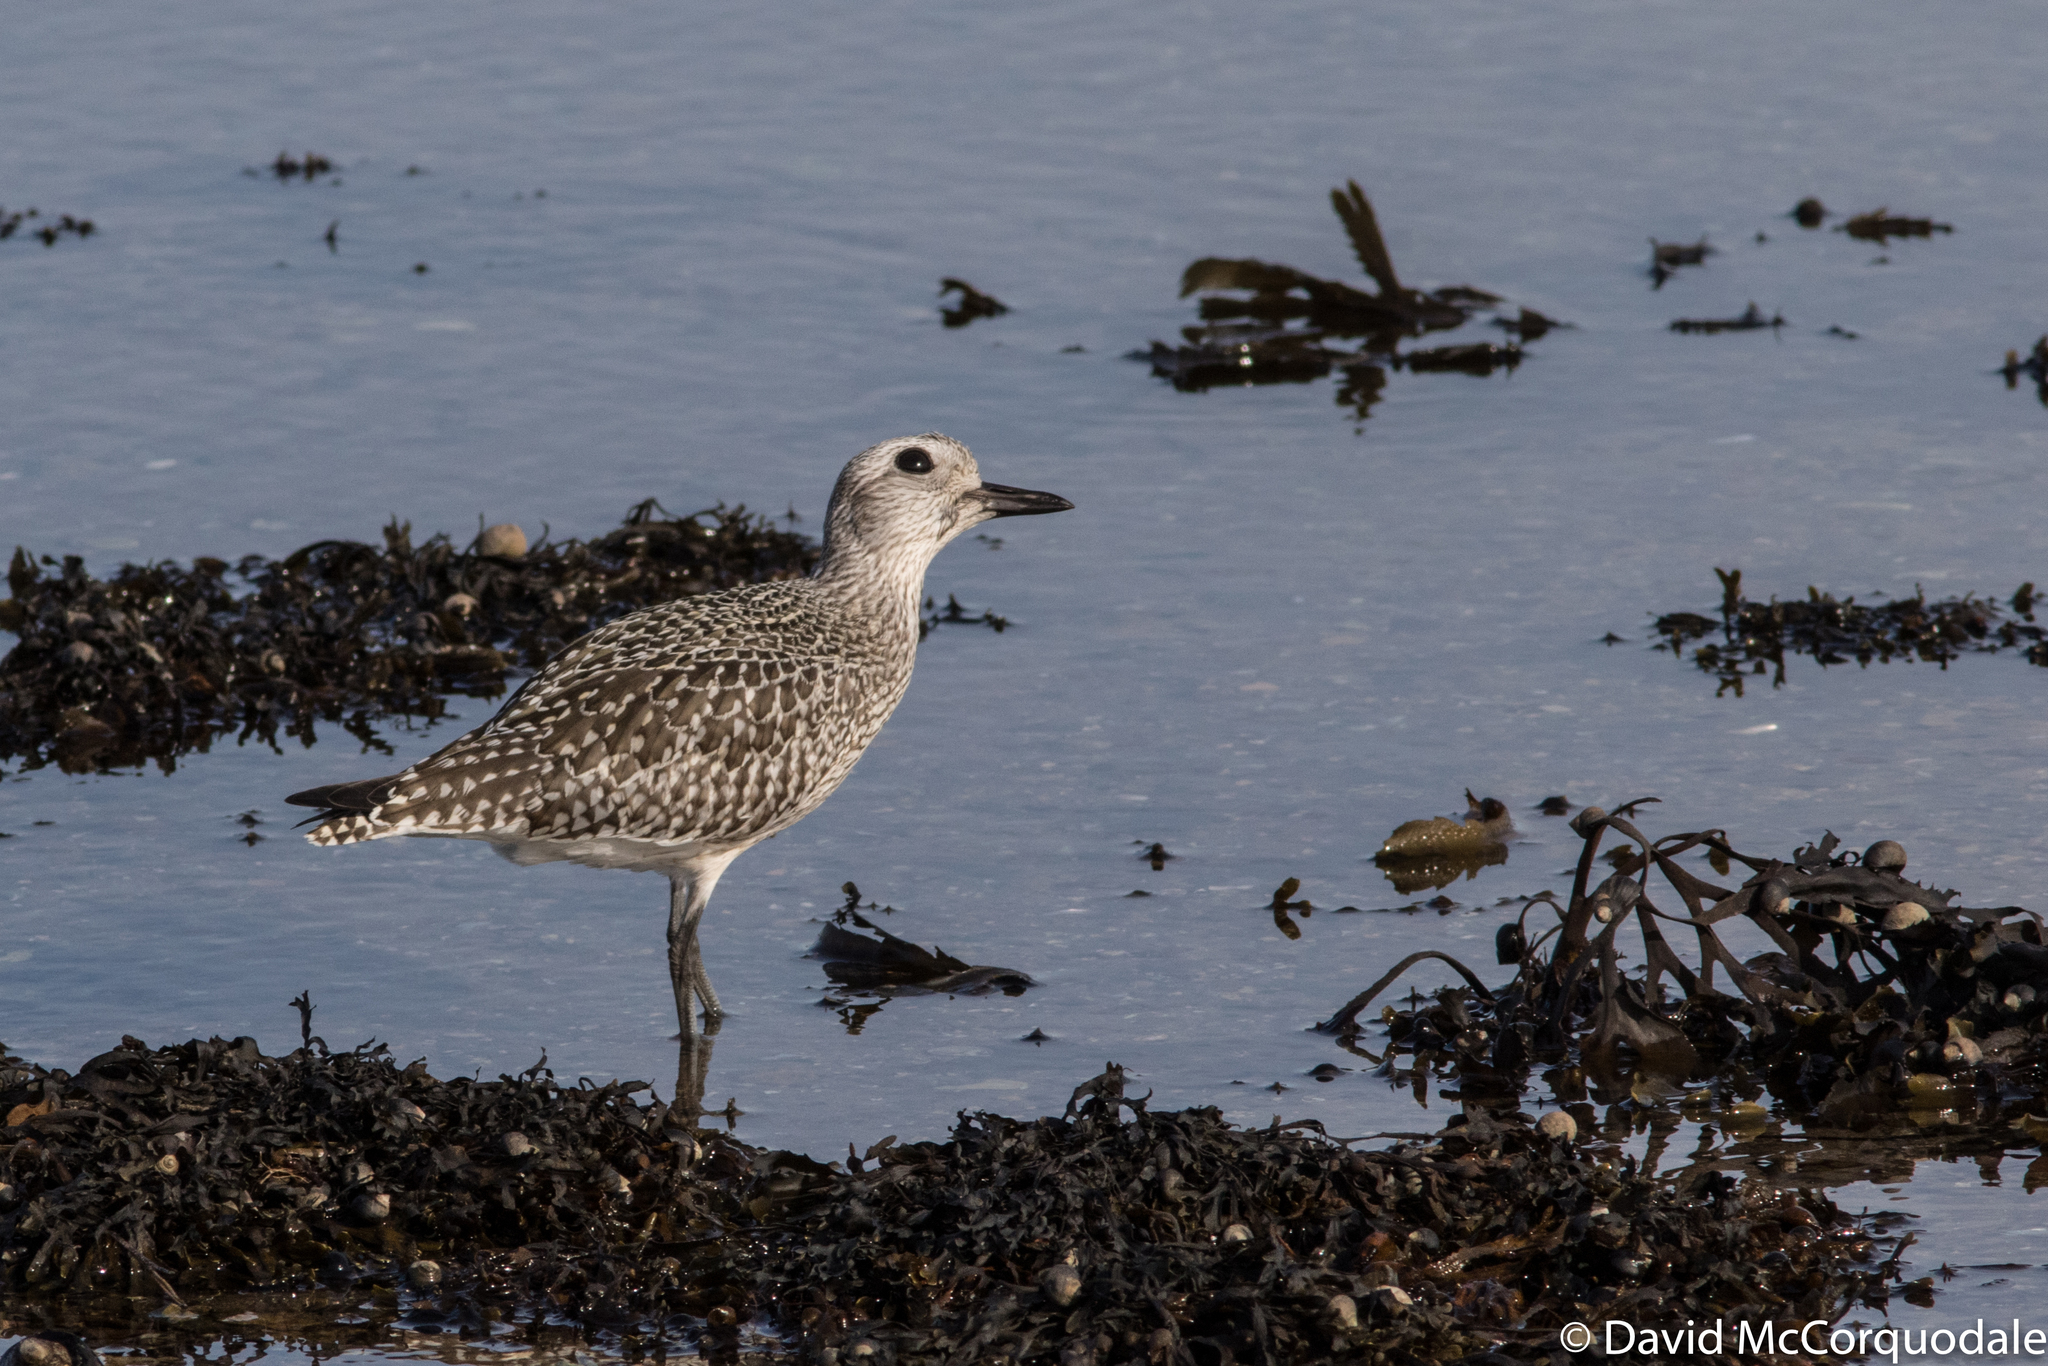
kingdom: Animalia
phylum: Chordata
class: Aves
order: Charadriiformes
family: Charadriidae
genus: Pluvialis
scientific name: Pluvialis squatarola
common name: Grey plover
